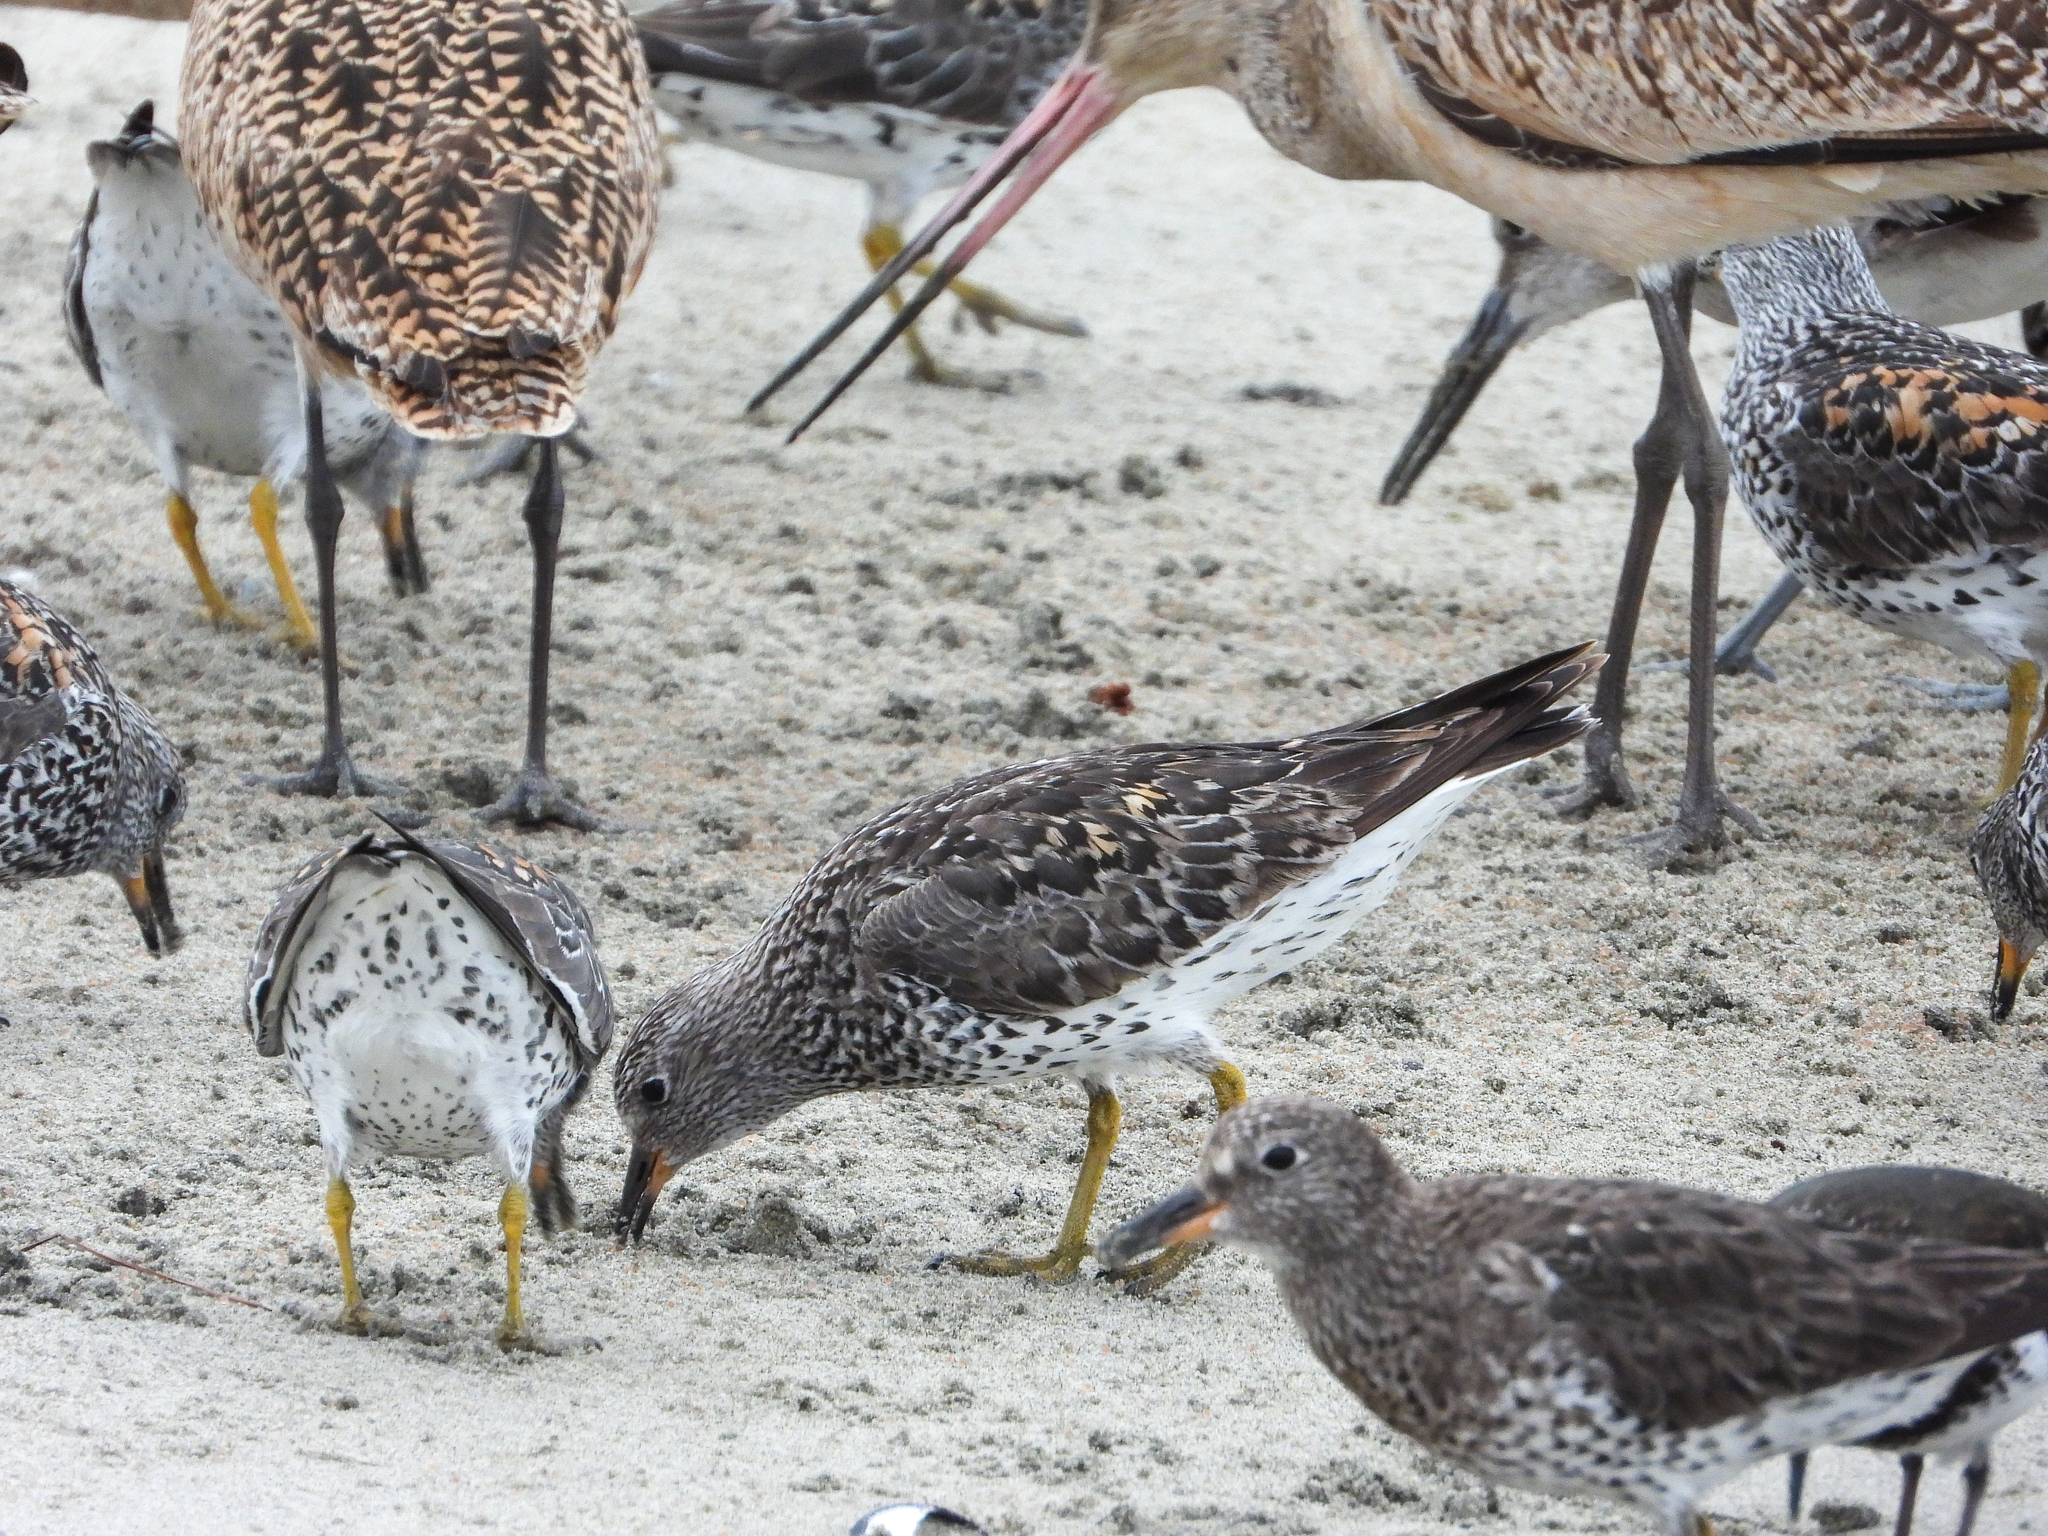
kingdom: Animalia
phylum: Chordata
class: Aves
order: Charadriiformes
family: Scolopacidae
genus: Calidris
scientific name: Calidris virgata
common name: Surfbird
